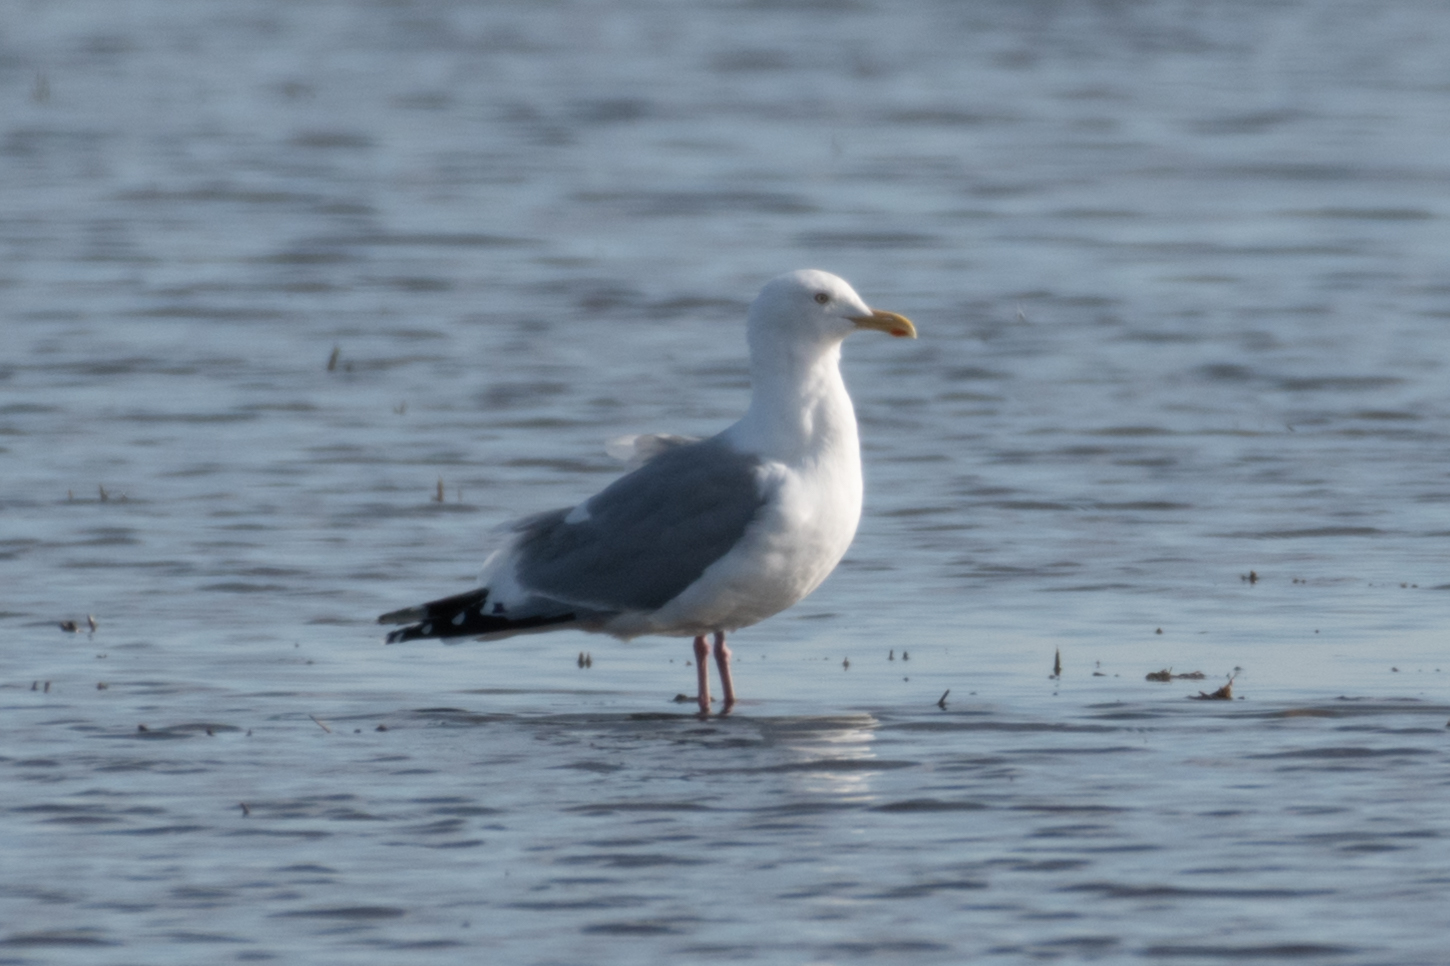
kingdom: Animalia
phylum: Chordata
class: Aves
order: Charadriiformes
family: Laridae
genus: Larus
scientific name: Larus occidentalis
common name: Western gull
